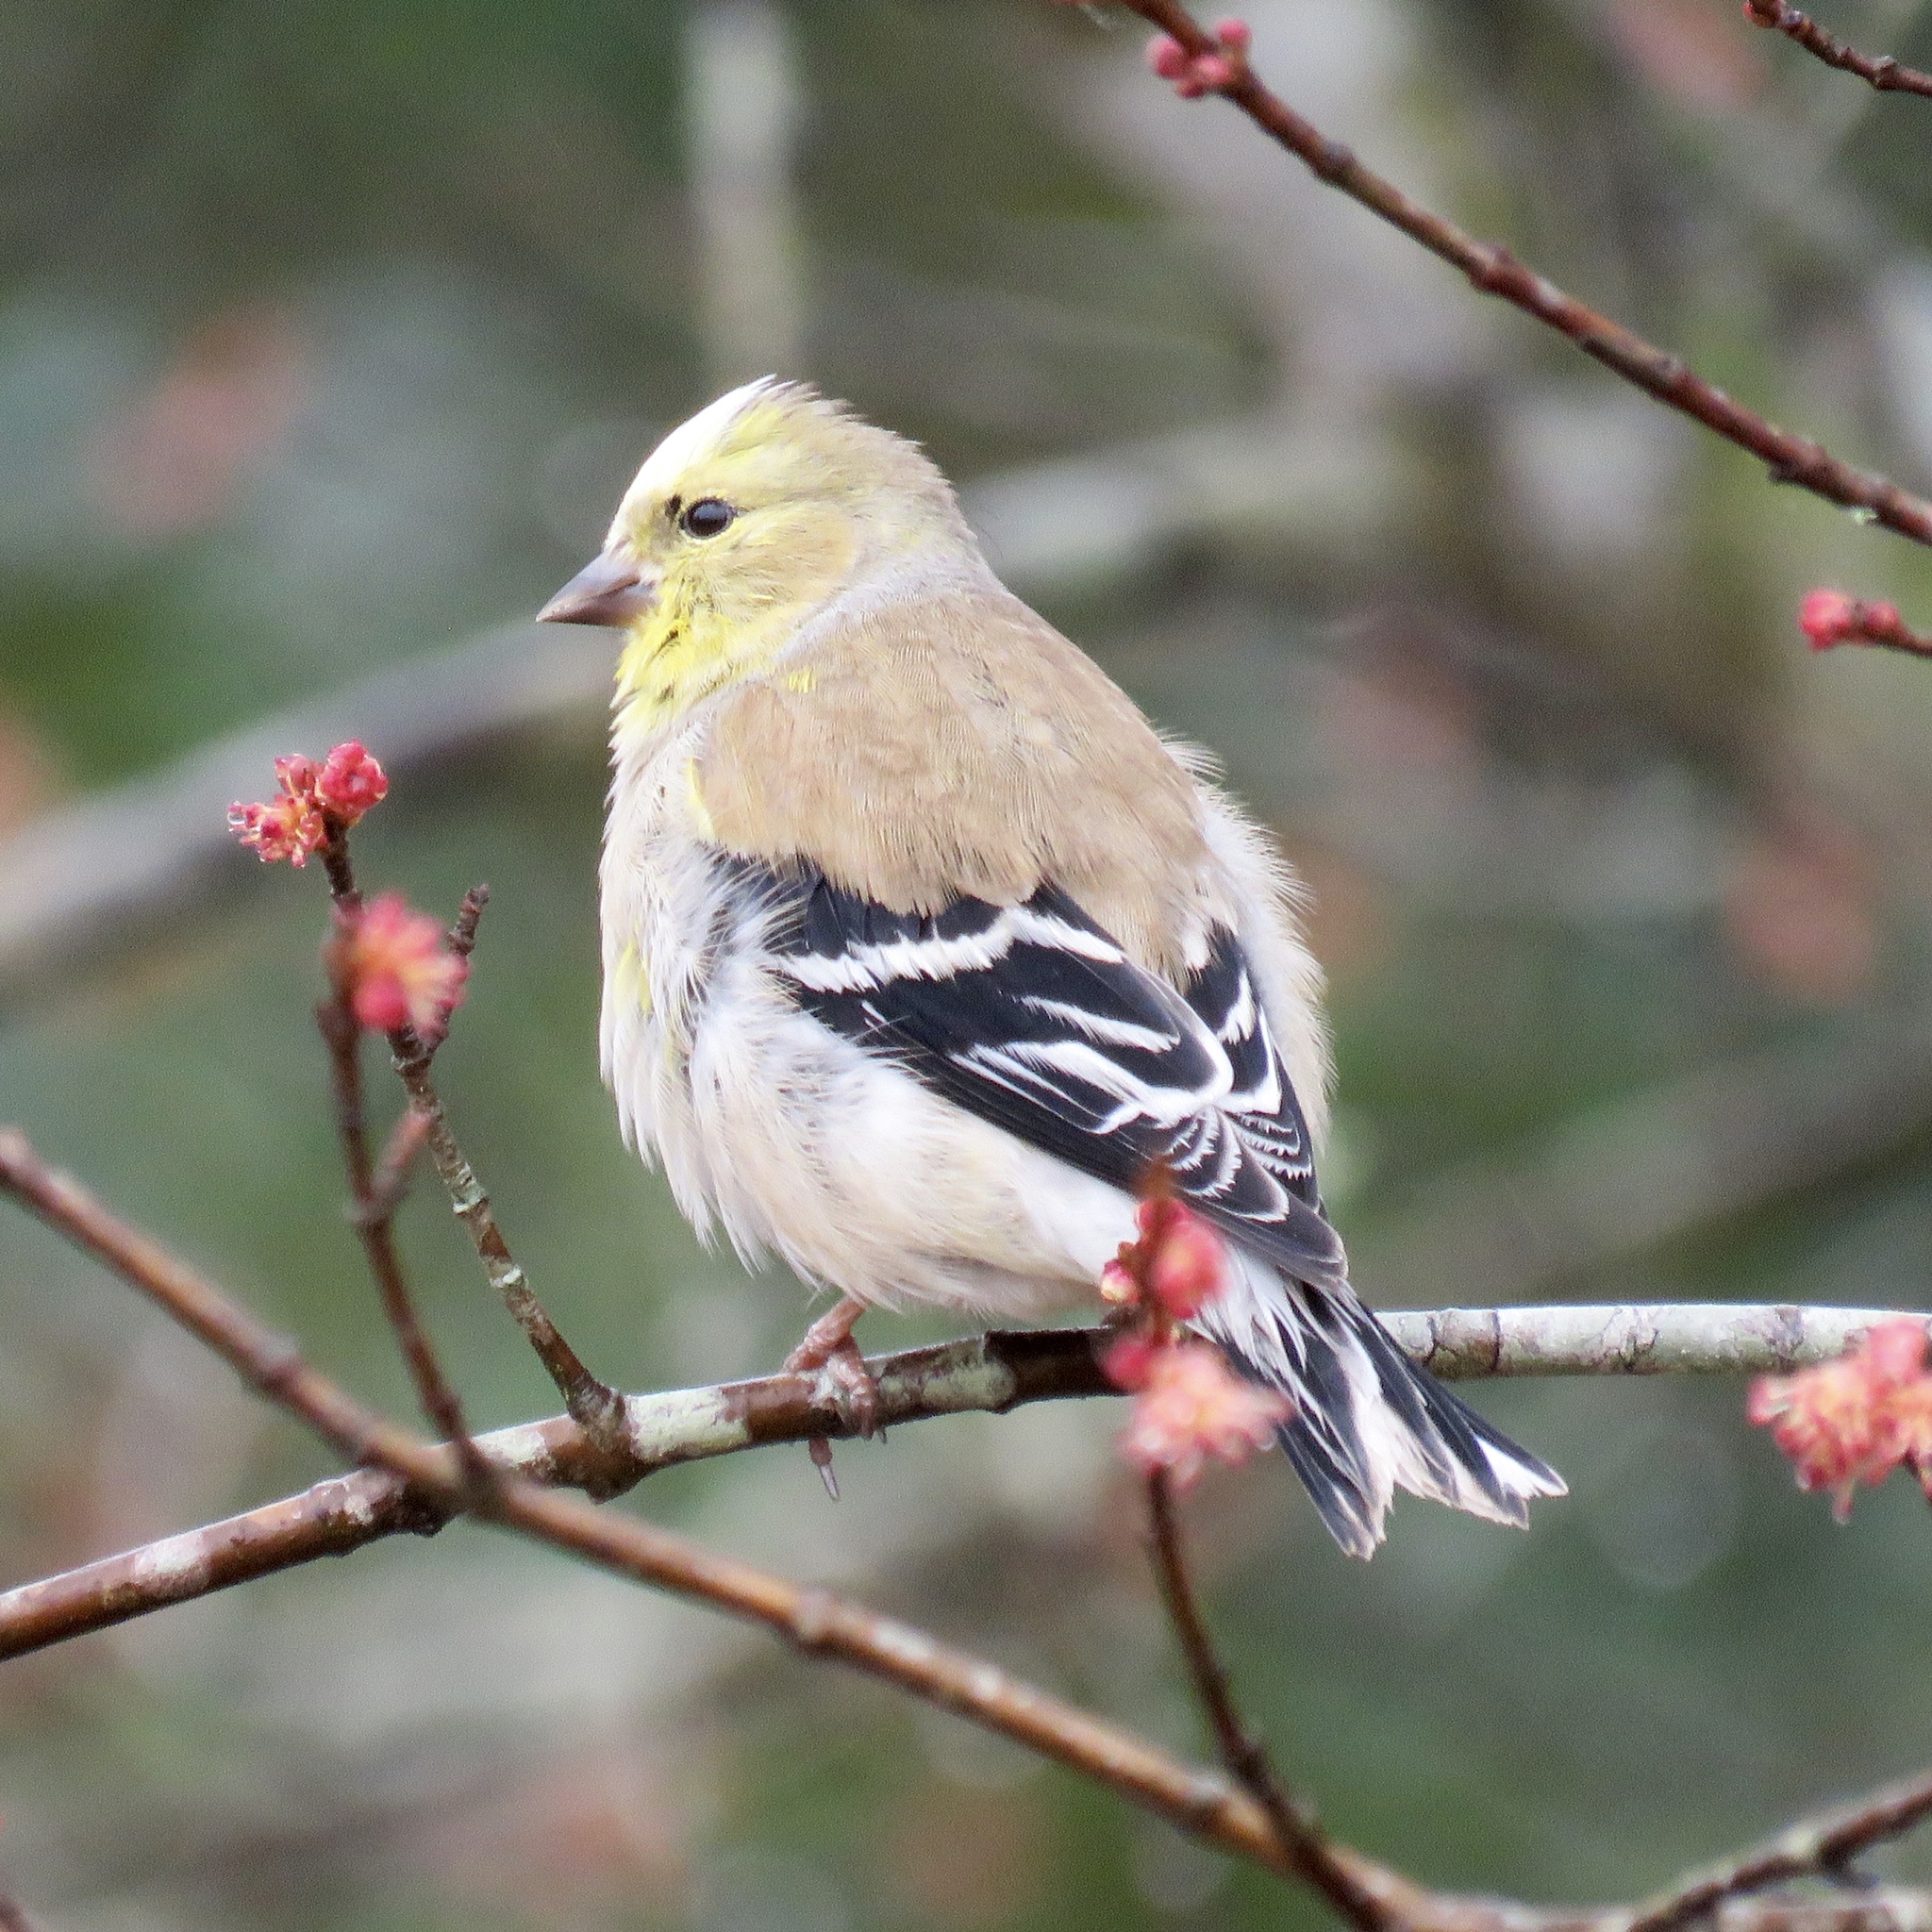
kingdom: Animalia
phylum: Chordata
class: Aves
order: Passeriformes
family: Fringillidae
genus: Spinus
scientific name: Spinus tristis
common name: American goldfinch
